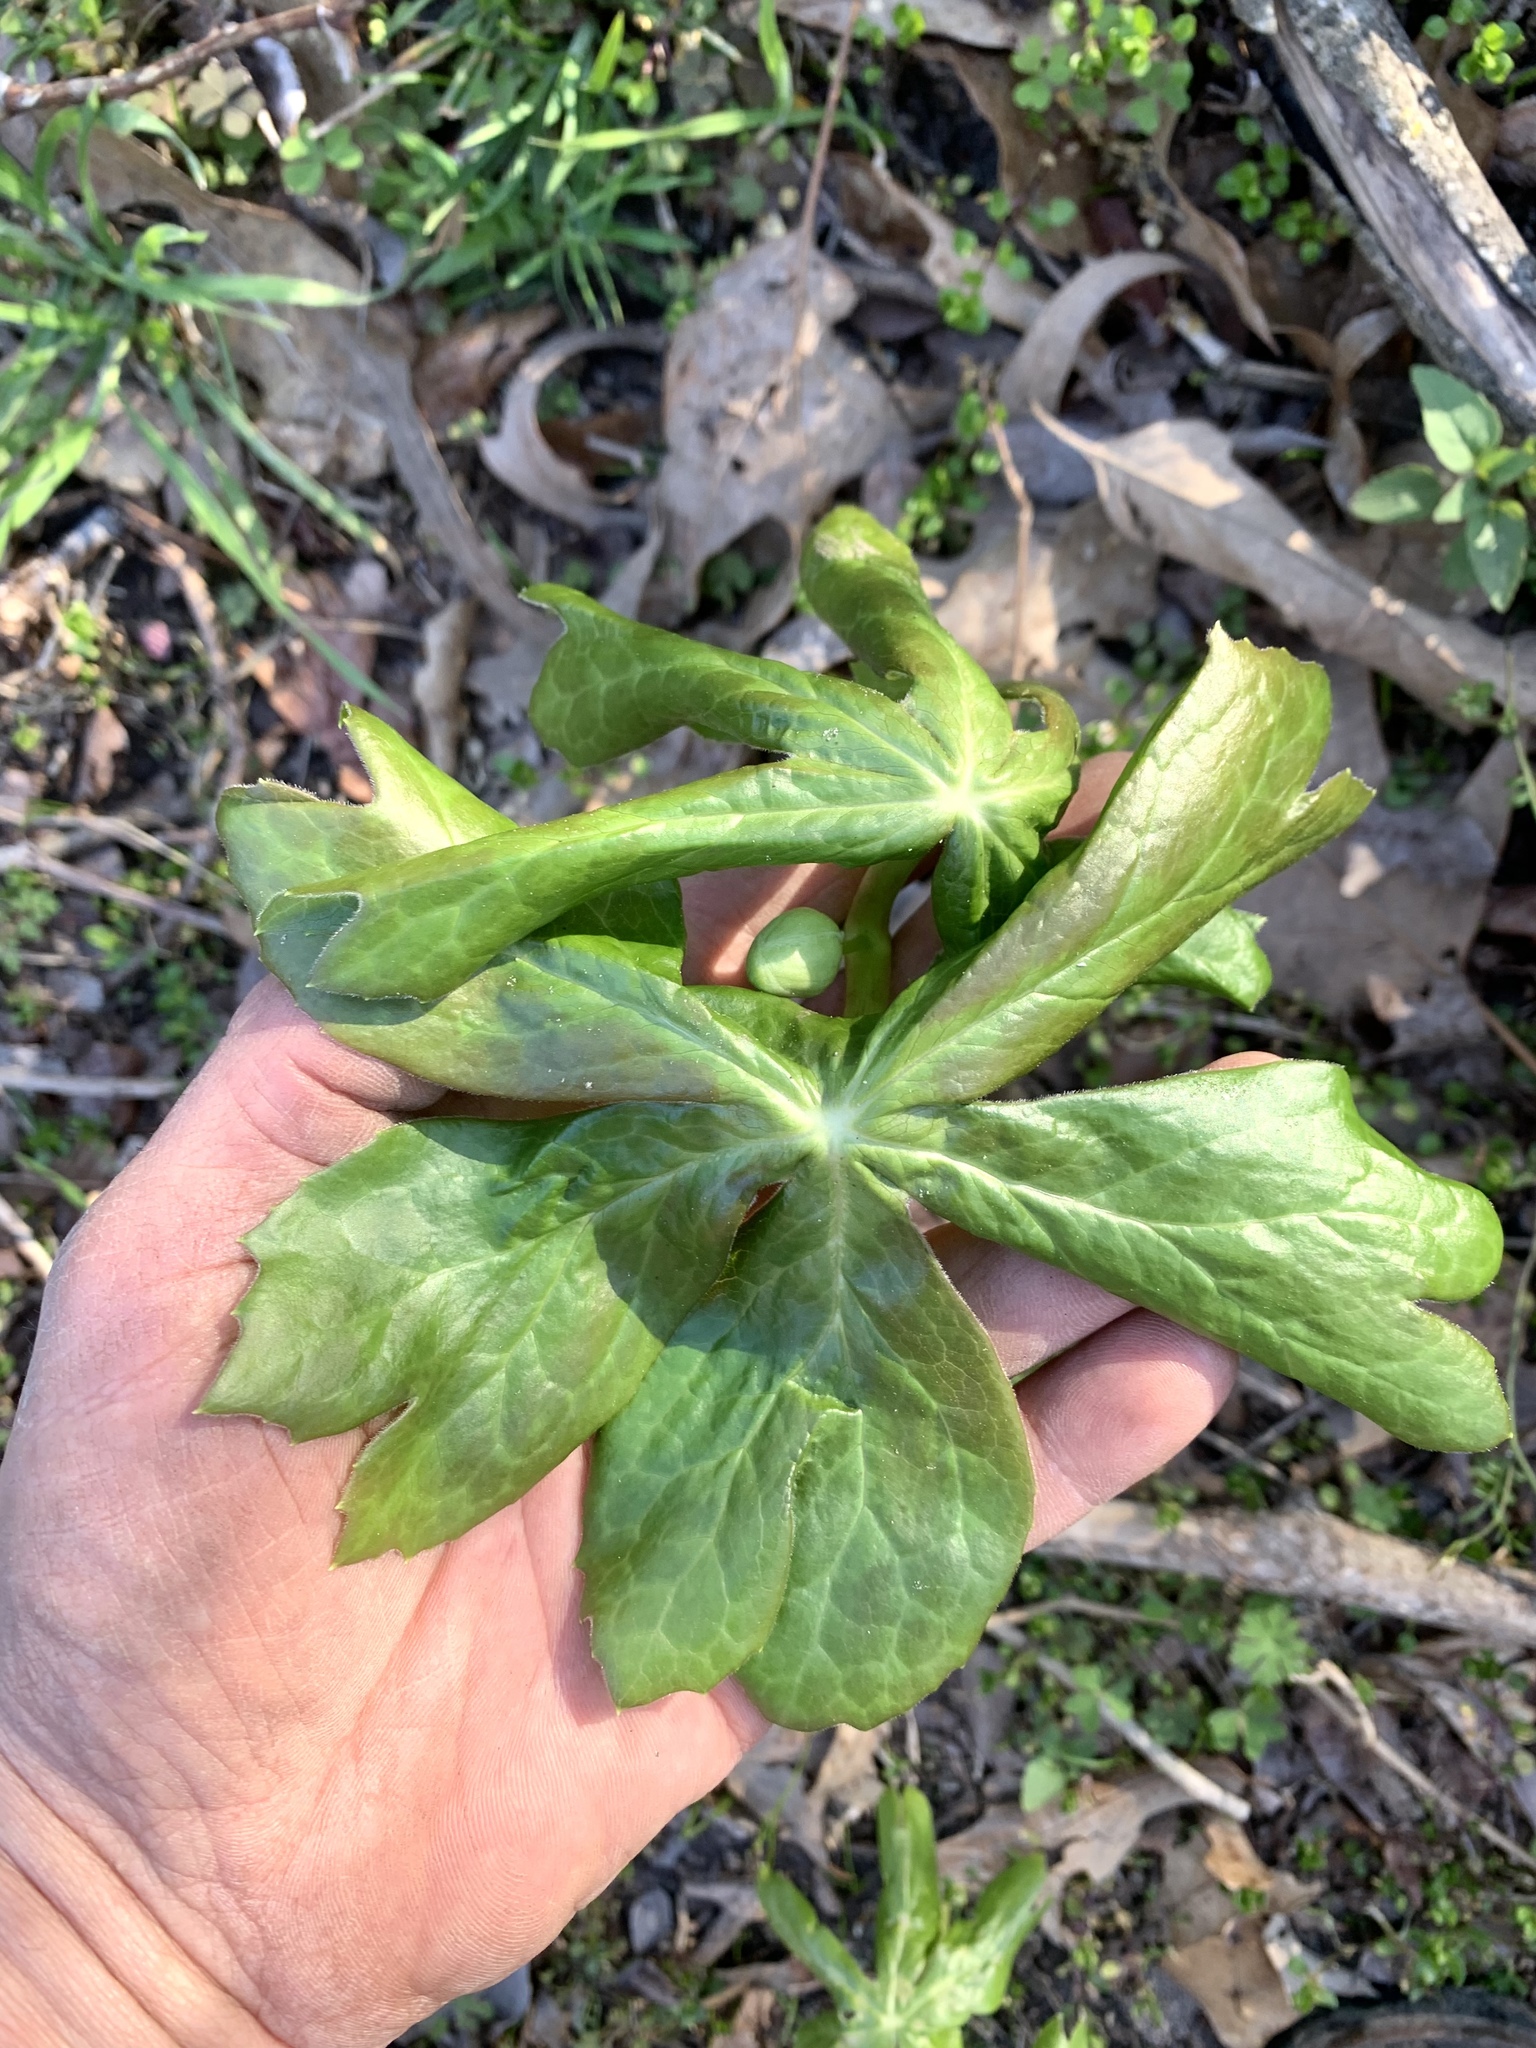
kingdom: Plantae
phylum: Tracheophyta
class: Magnoliopsida
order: Ranunculales
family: Berberidaceae
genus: Podophyllum
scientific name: Podophyllum peltatum
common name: Wild mandrake
